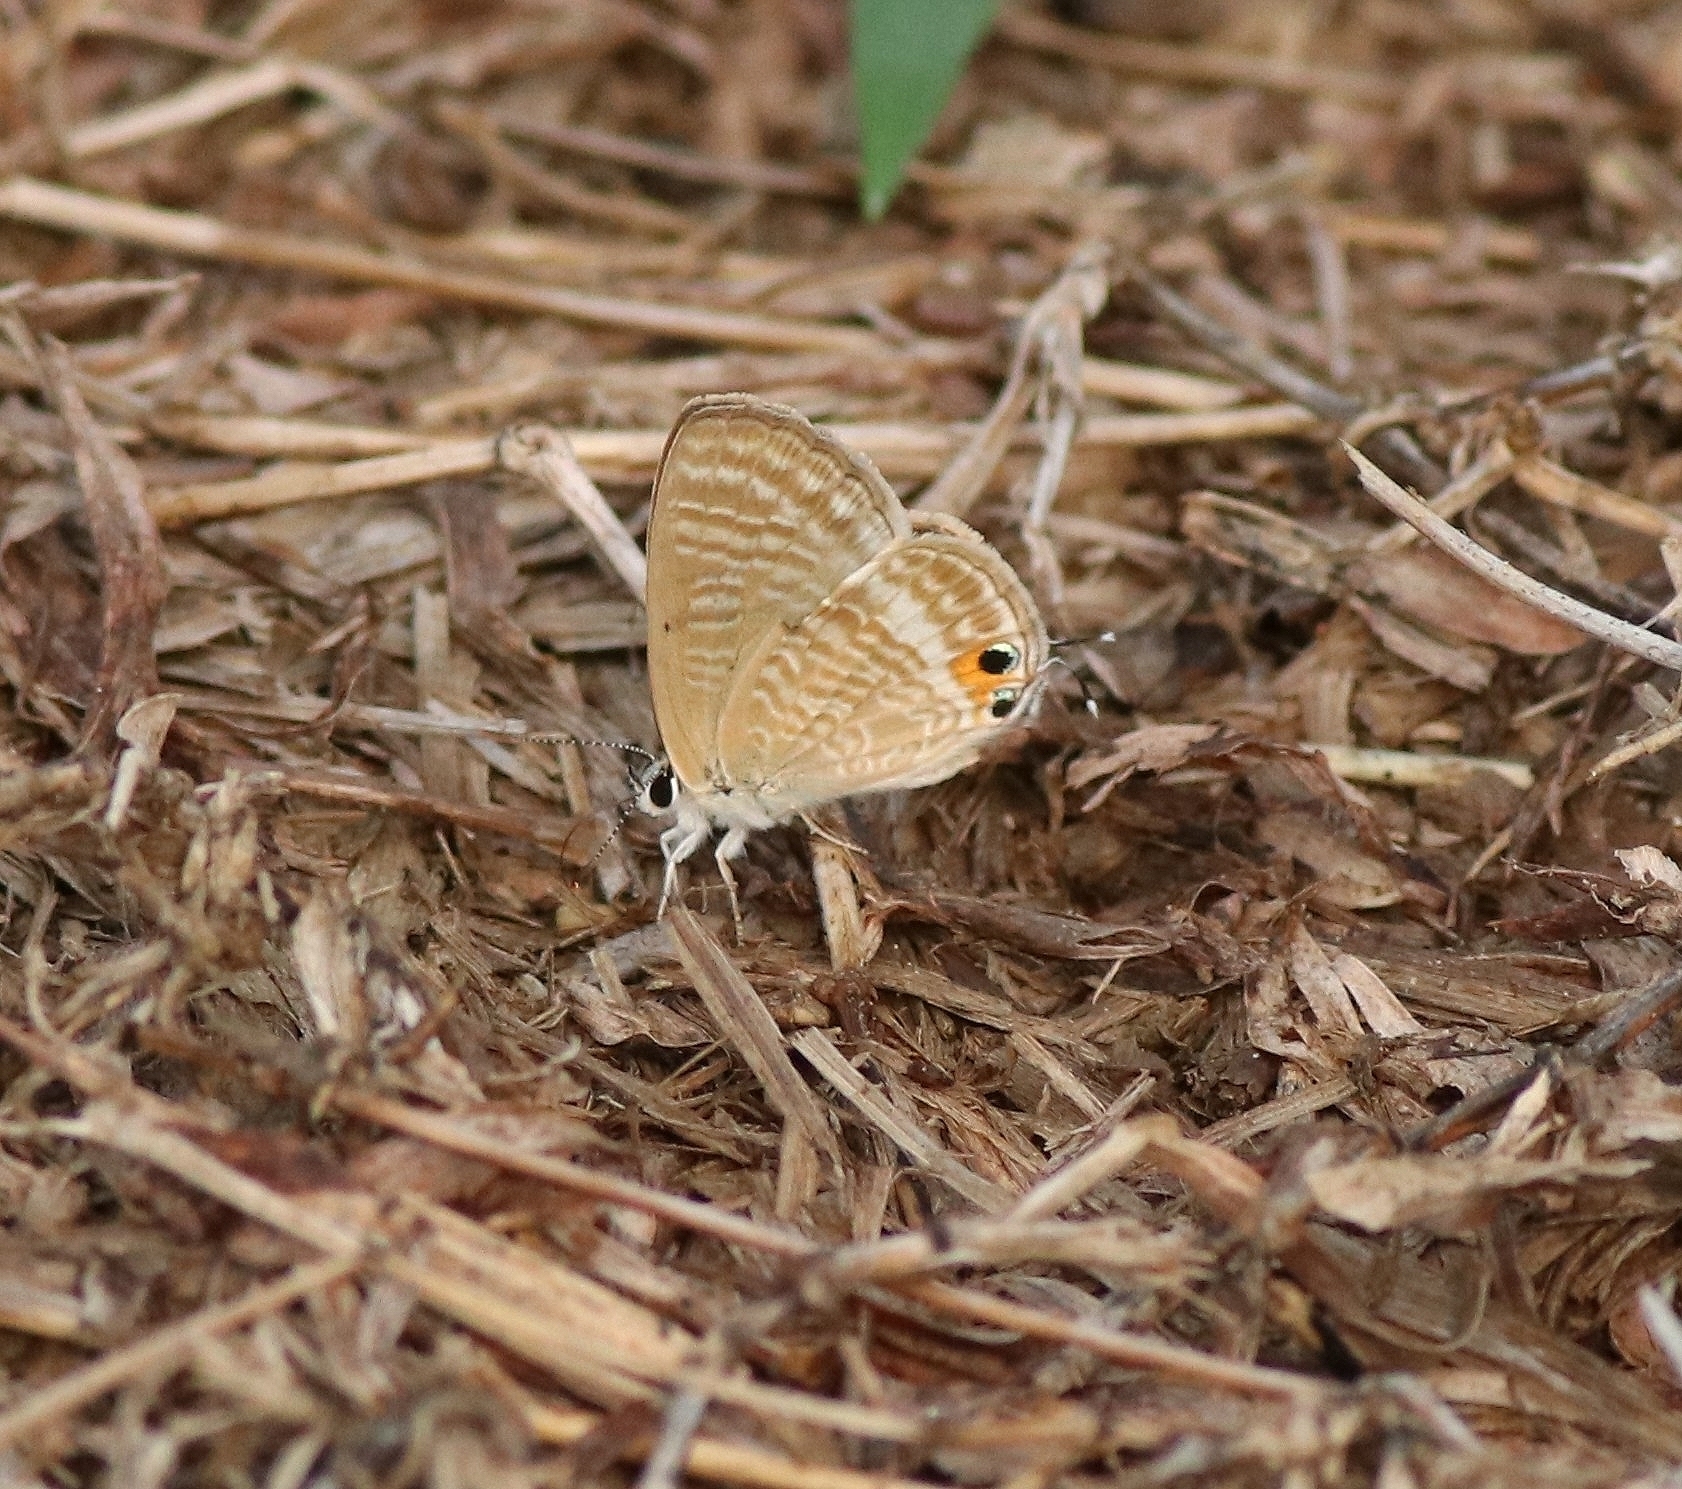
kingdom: Animalia
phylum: Arthropoda
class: Insecta
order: Lepidoptera
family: Lycaenidae
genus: Lampides
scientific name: Lampides boeticus
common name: Long-tailed blue
